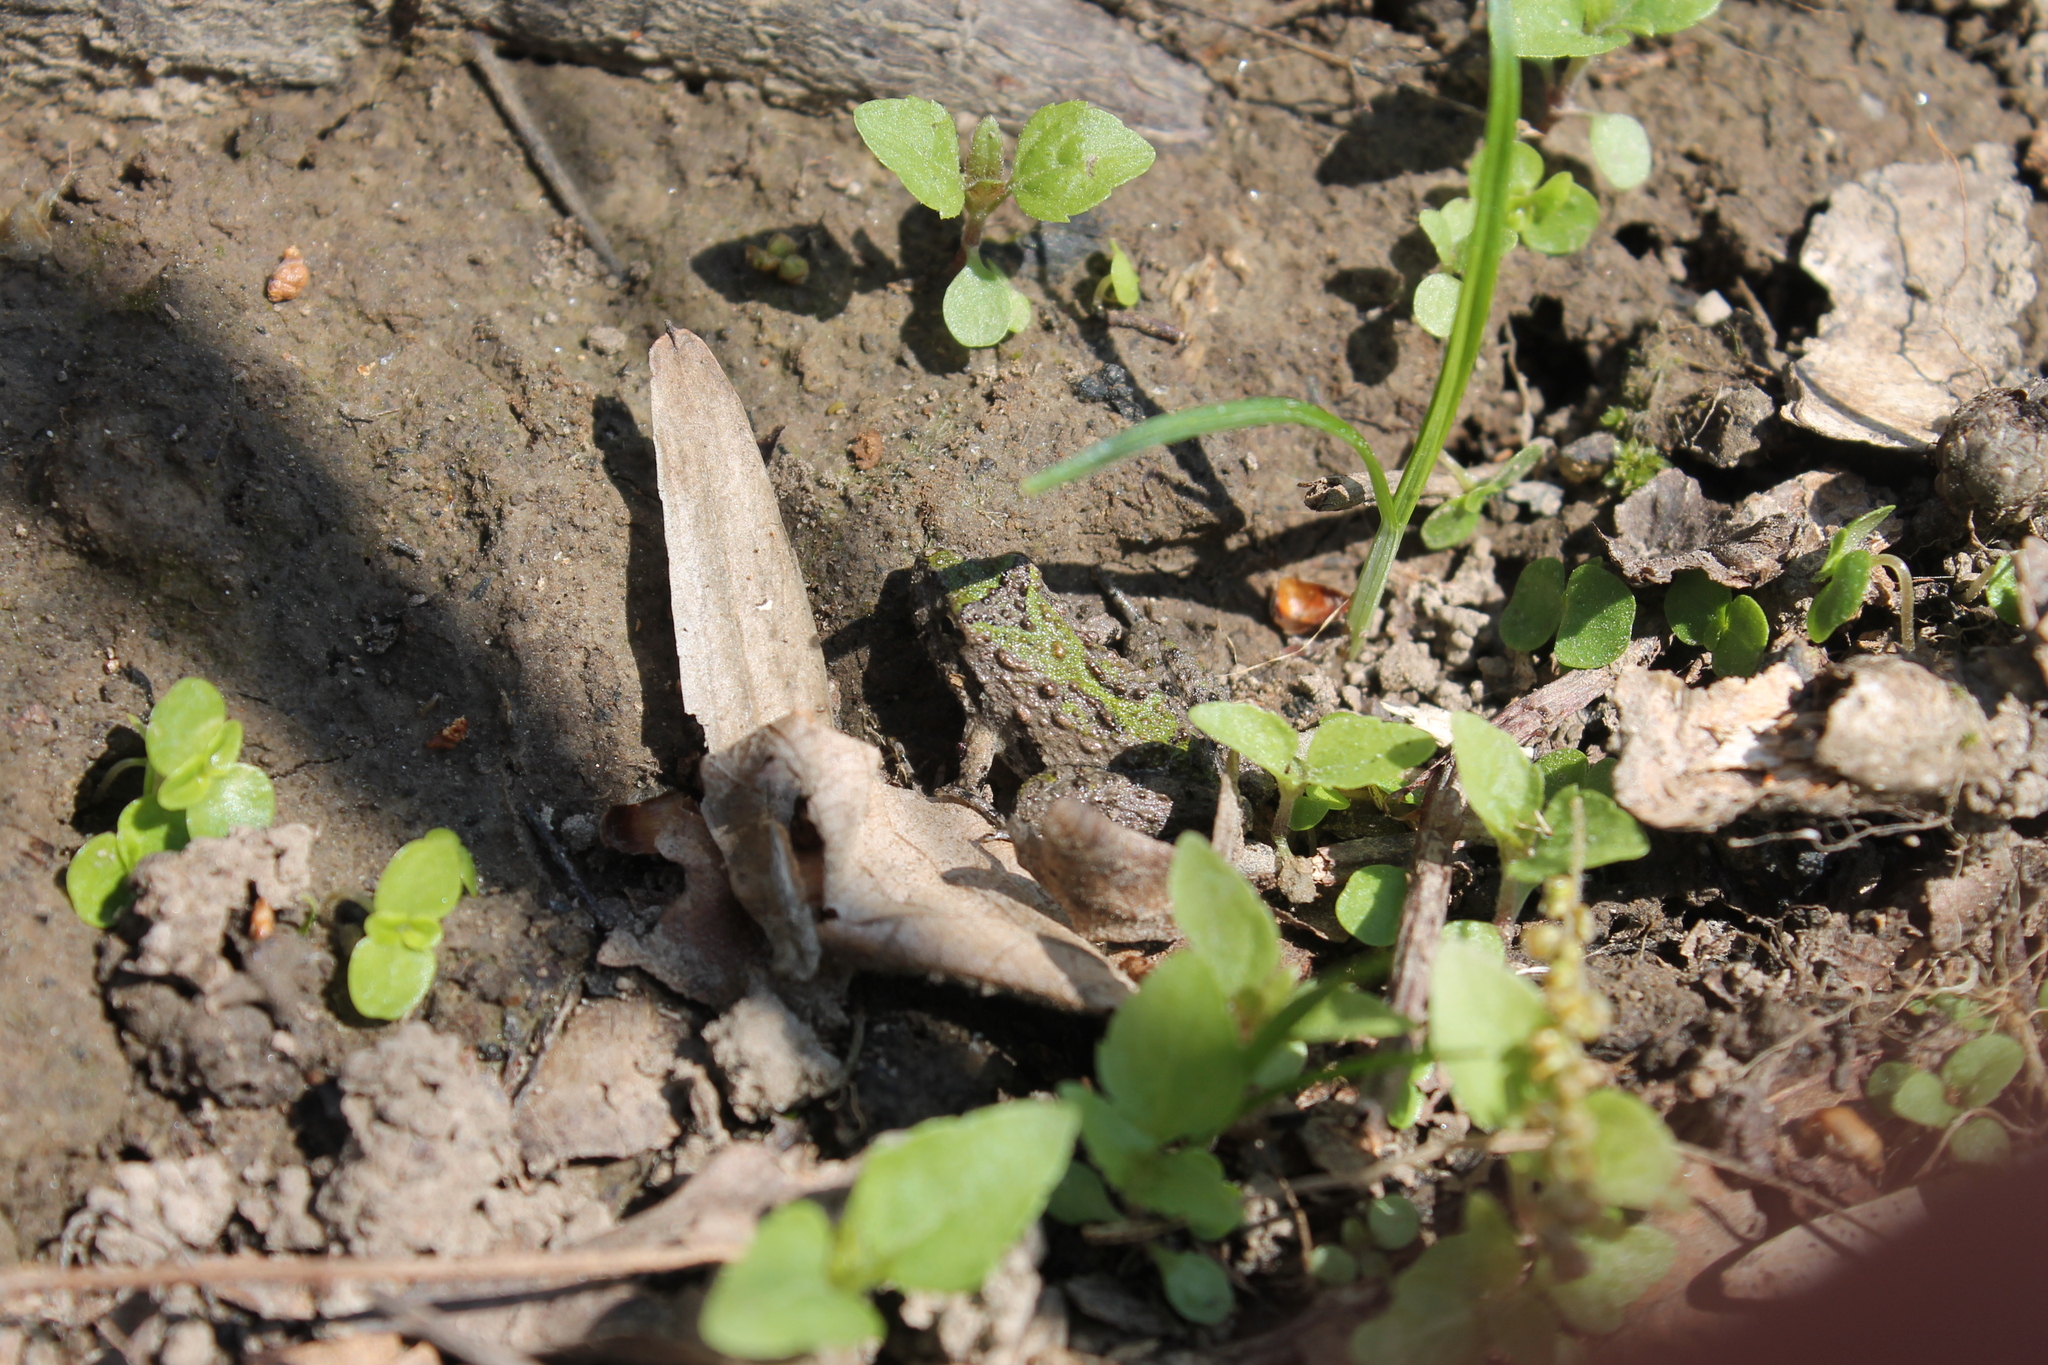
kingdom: Animalia
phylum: Chordata
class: Amphibia
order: Anura
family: Hylidae
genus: Acris
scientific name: Acris blanchardi
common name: Blanchard's cricket frog
